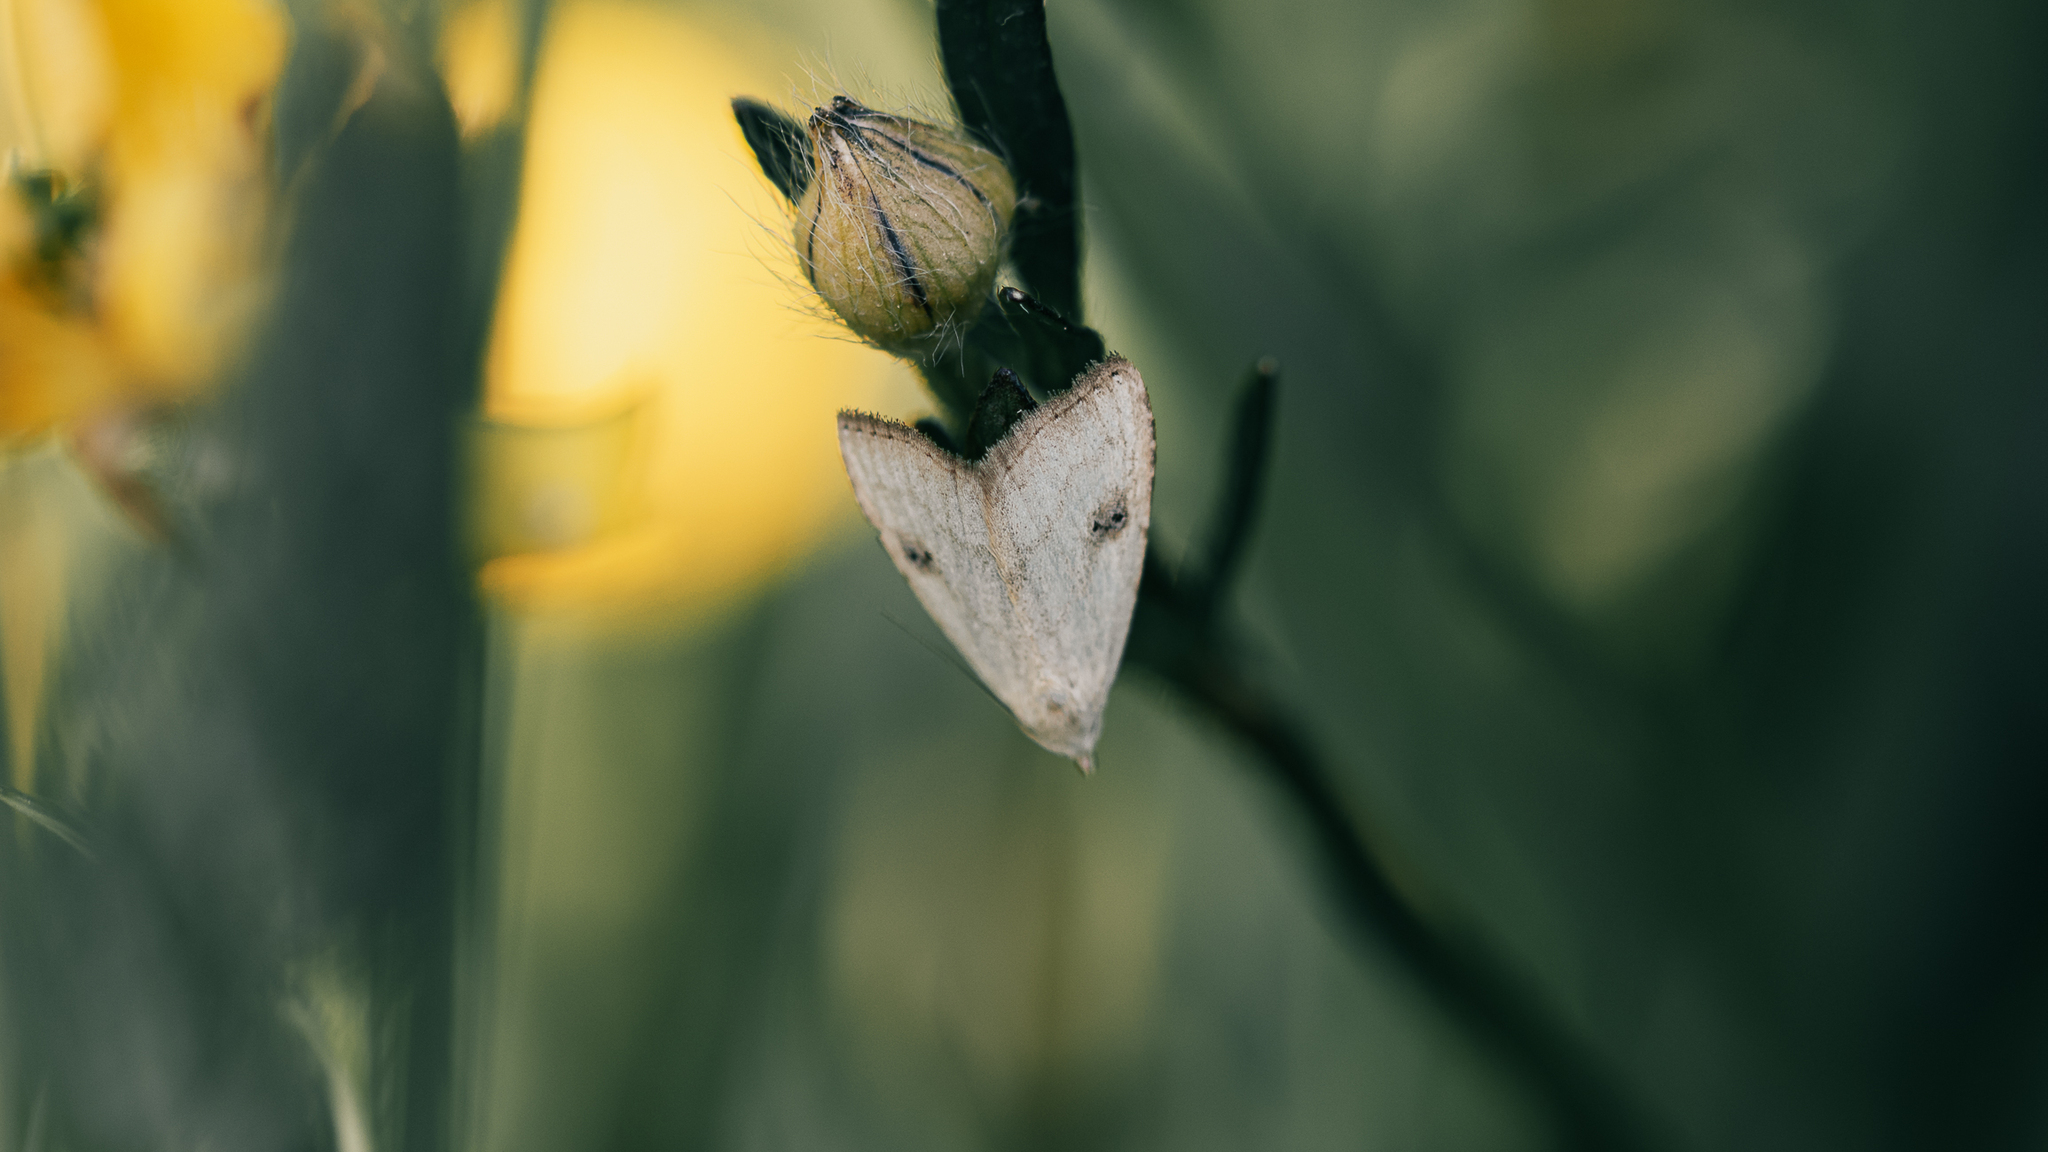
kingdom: Animalia
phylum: Arthropoda
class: Insecta
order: Lepidoptera
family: Erebidae
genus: Rivula
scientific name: Rivula sericealis
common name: Straw dot
